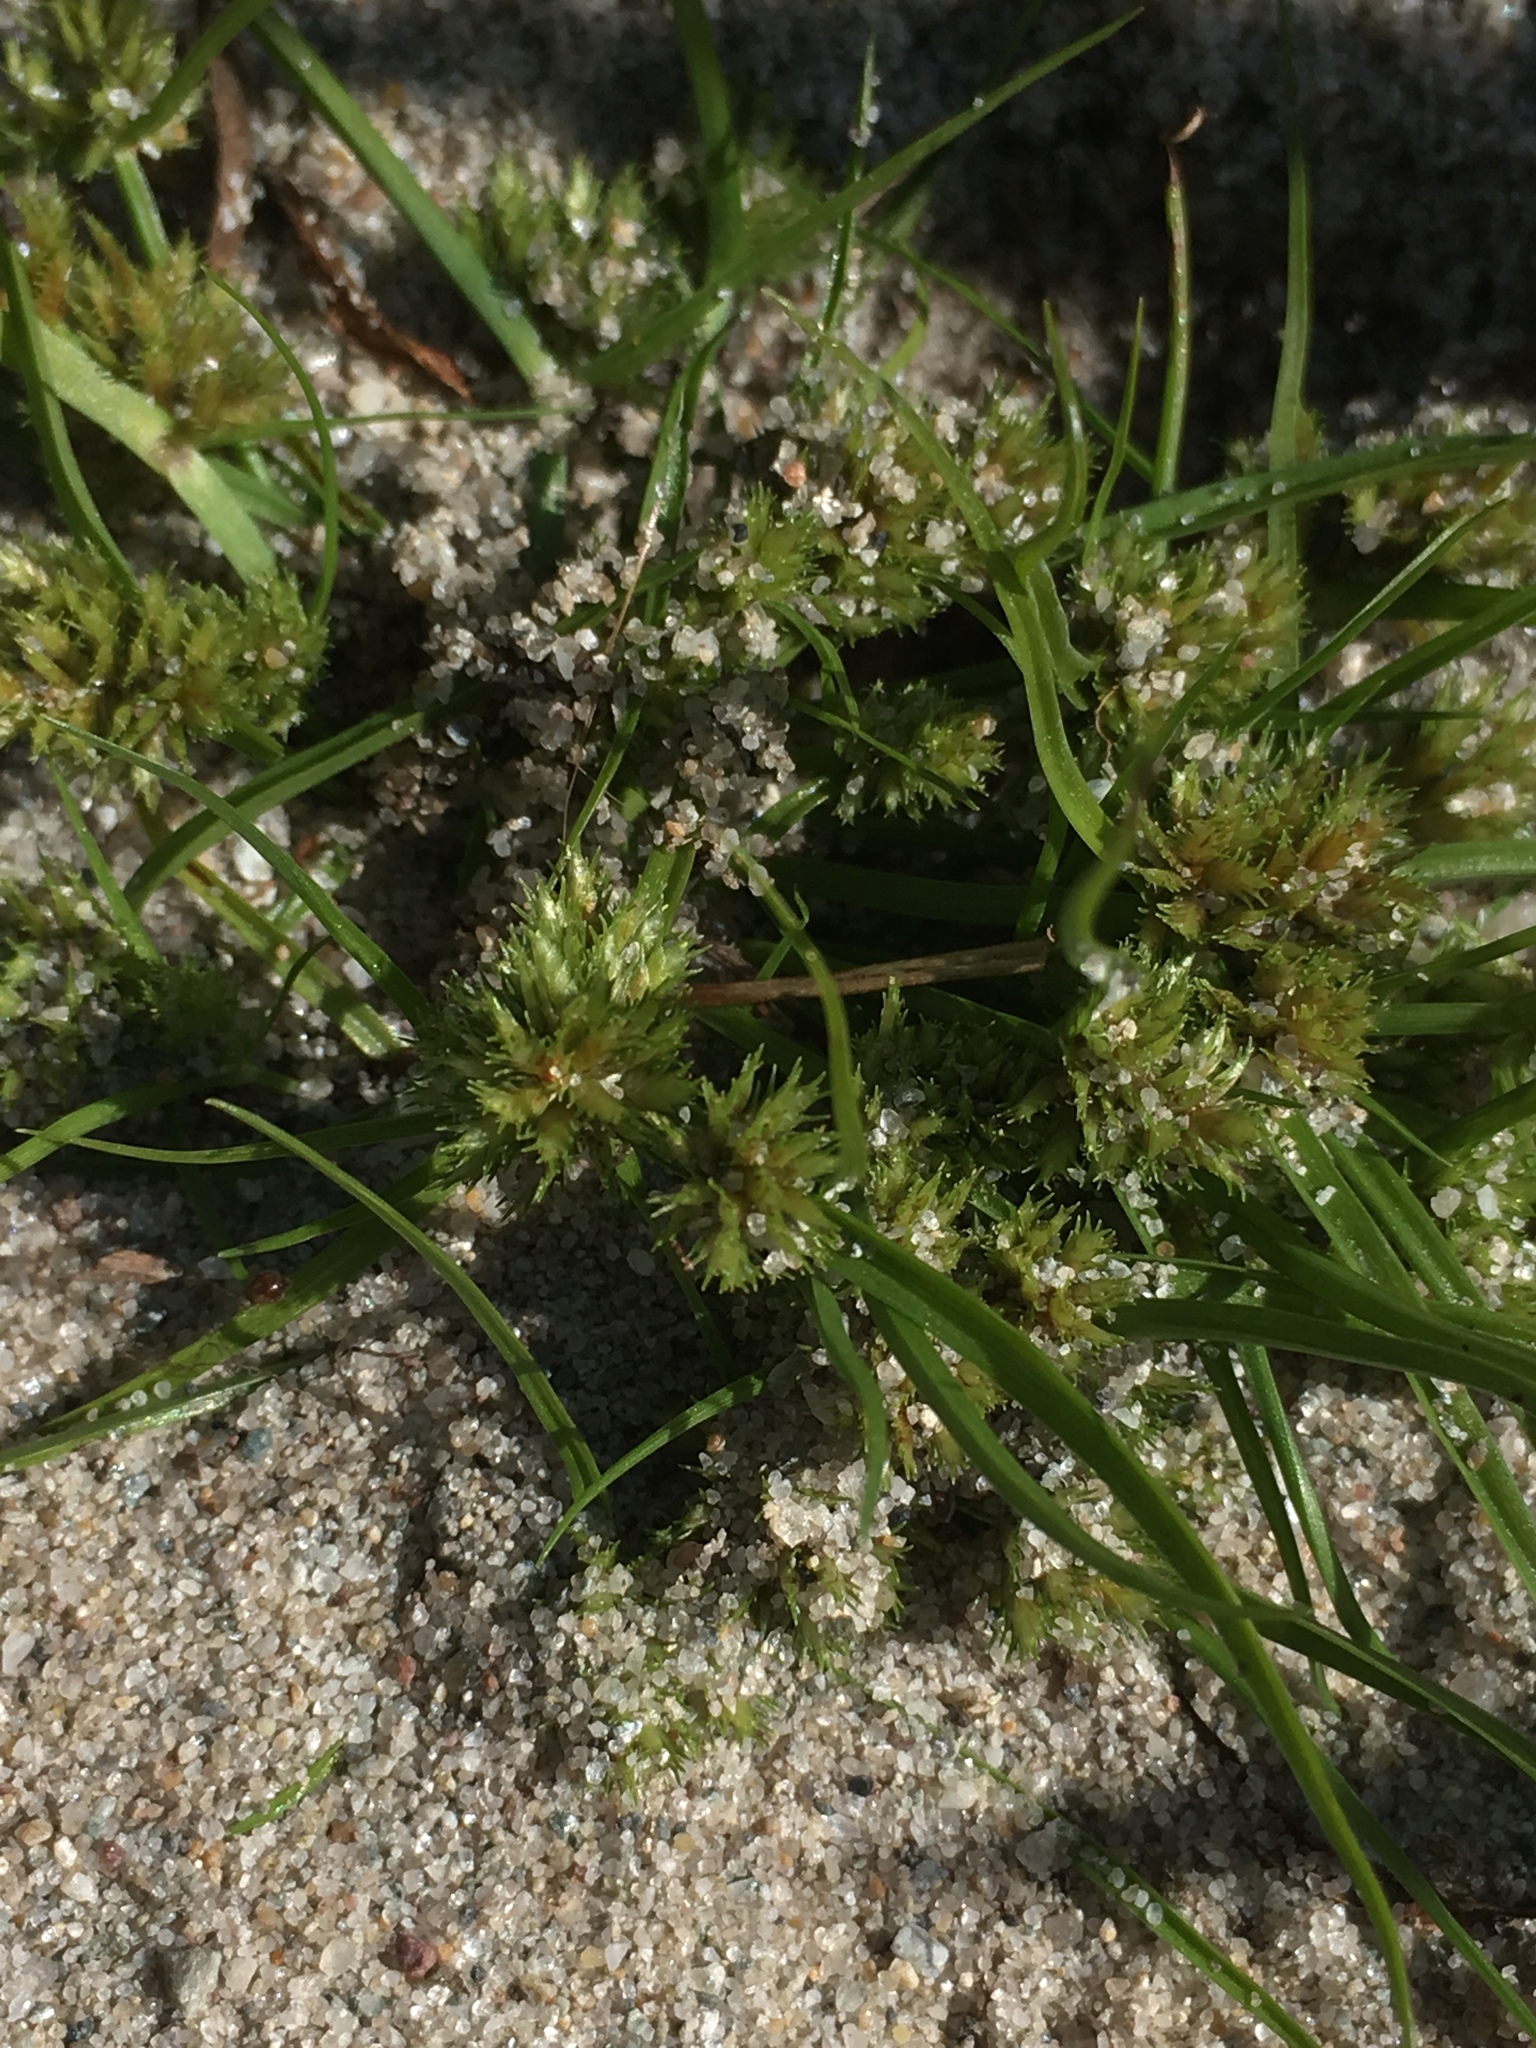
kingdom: Plantae
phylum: Tracheophyta
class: Liliopsida
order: Poales
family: Cyperaceae
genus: Cyperus
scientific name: Cyperus squarrosus
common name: Awned cyperus
